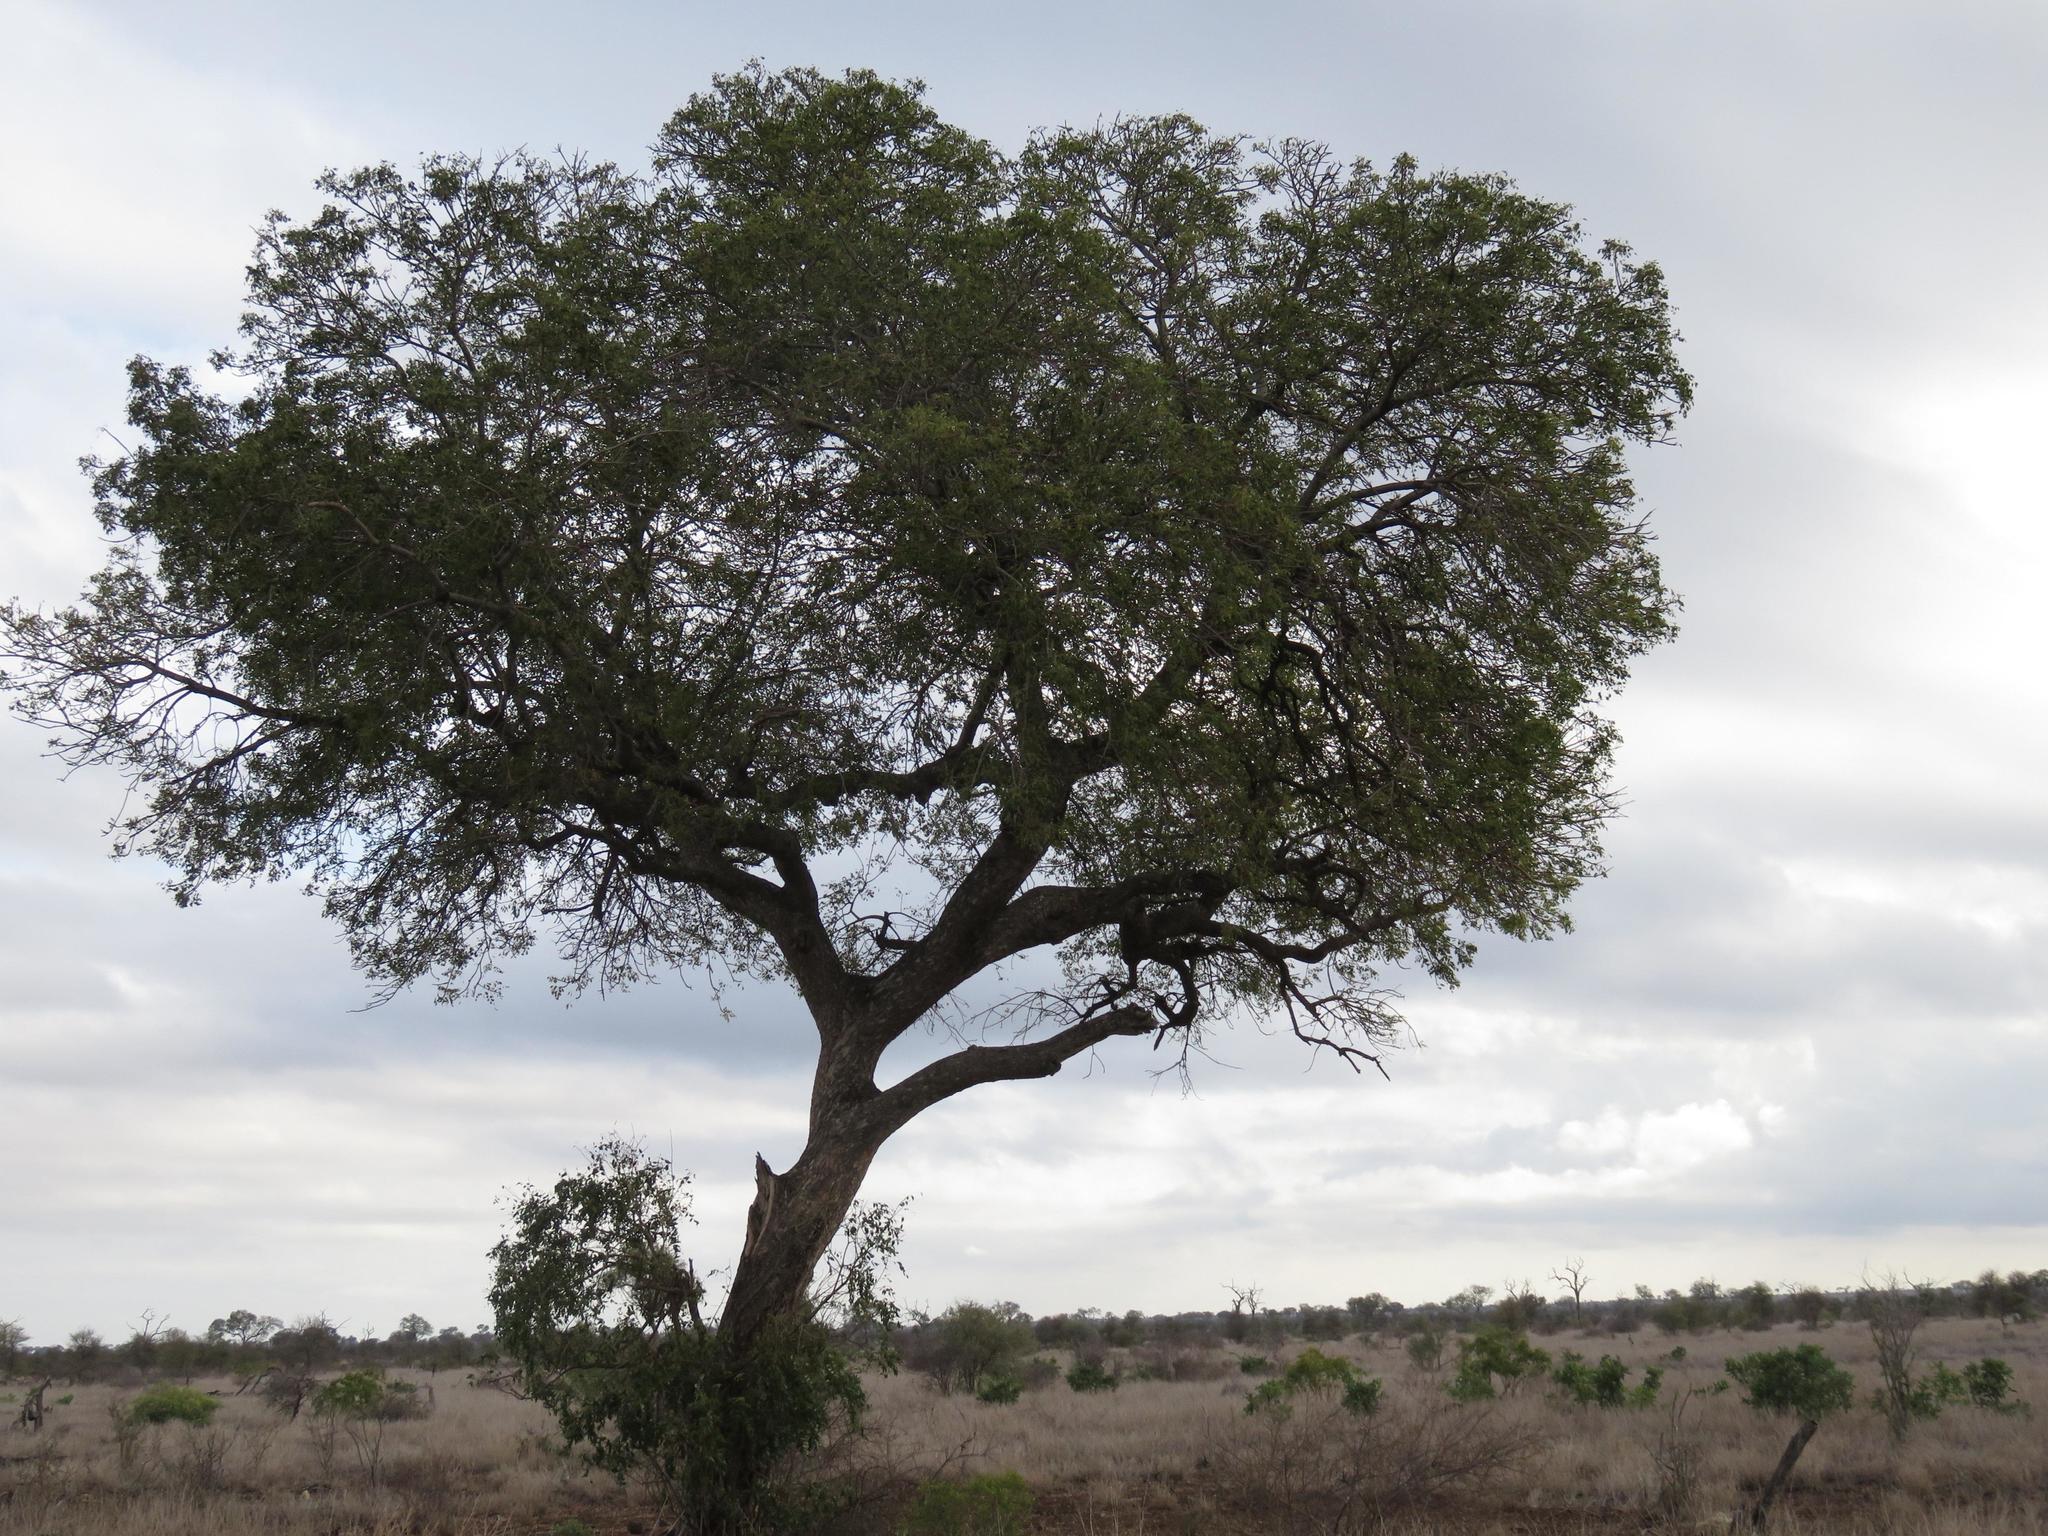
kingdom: Plantae
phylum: Tracheophyta
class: Magnoliopsida
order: Sapindales
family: Anacardiaceae
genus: Sclerocarya
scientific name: Sclerocarya birrea
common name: Marula
